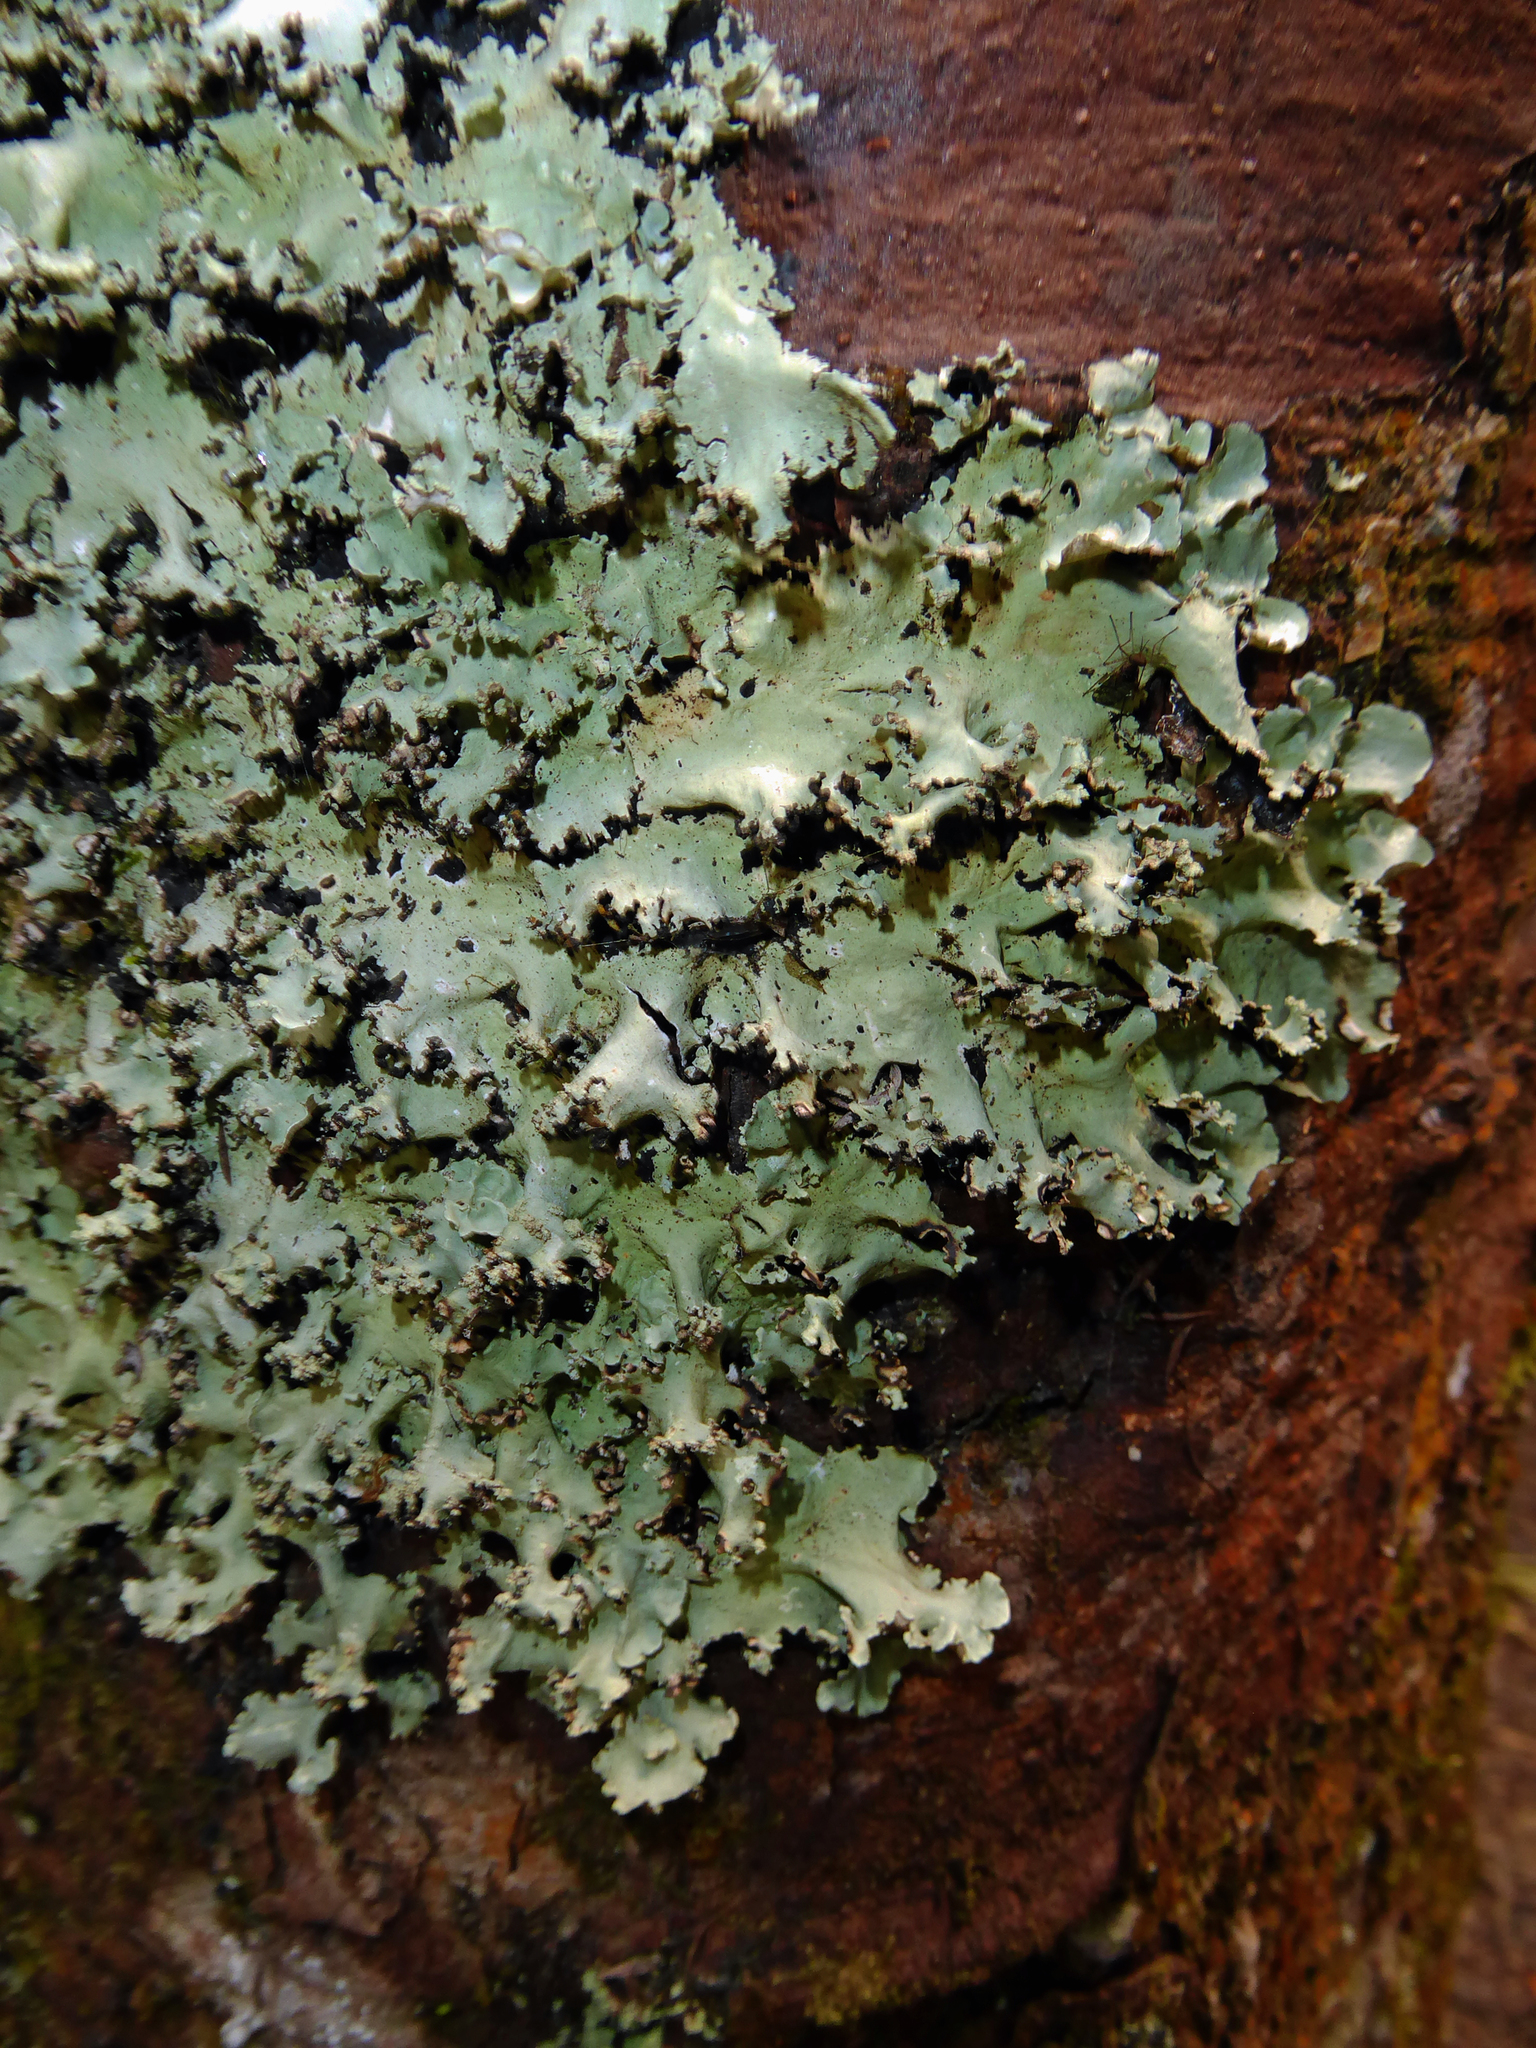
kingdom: Fungi
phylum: Ascomycota
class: Lecanoromycetes
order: Lecanorales
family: Parmeliaceae
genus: Parmotrema
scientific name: Parmotrema austrocetratum
